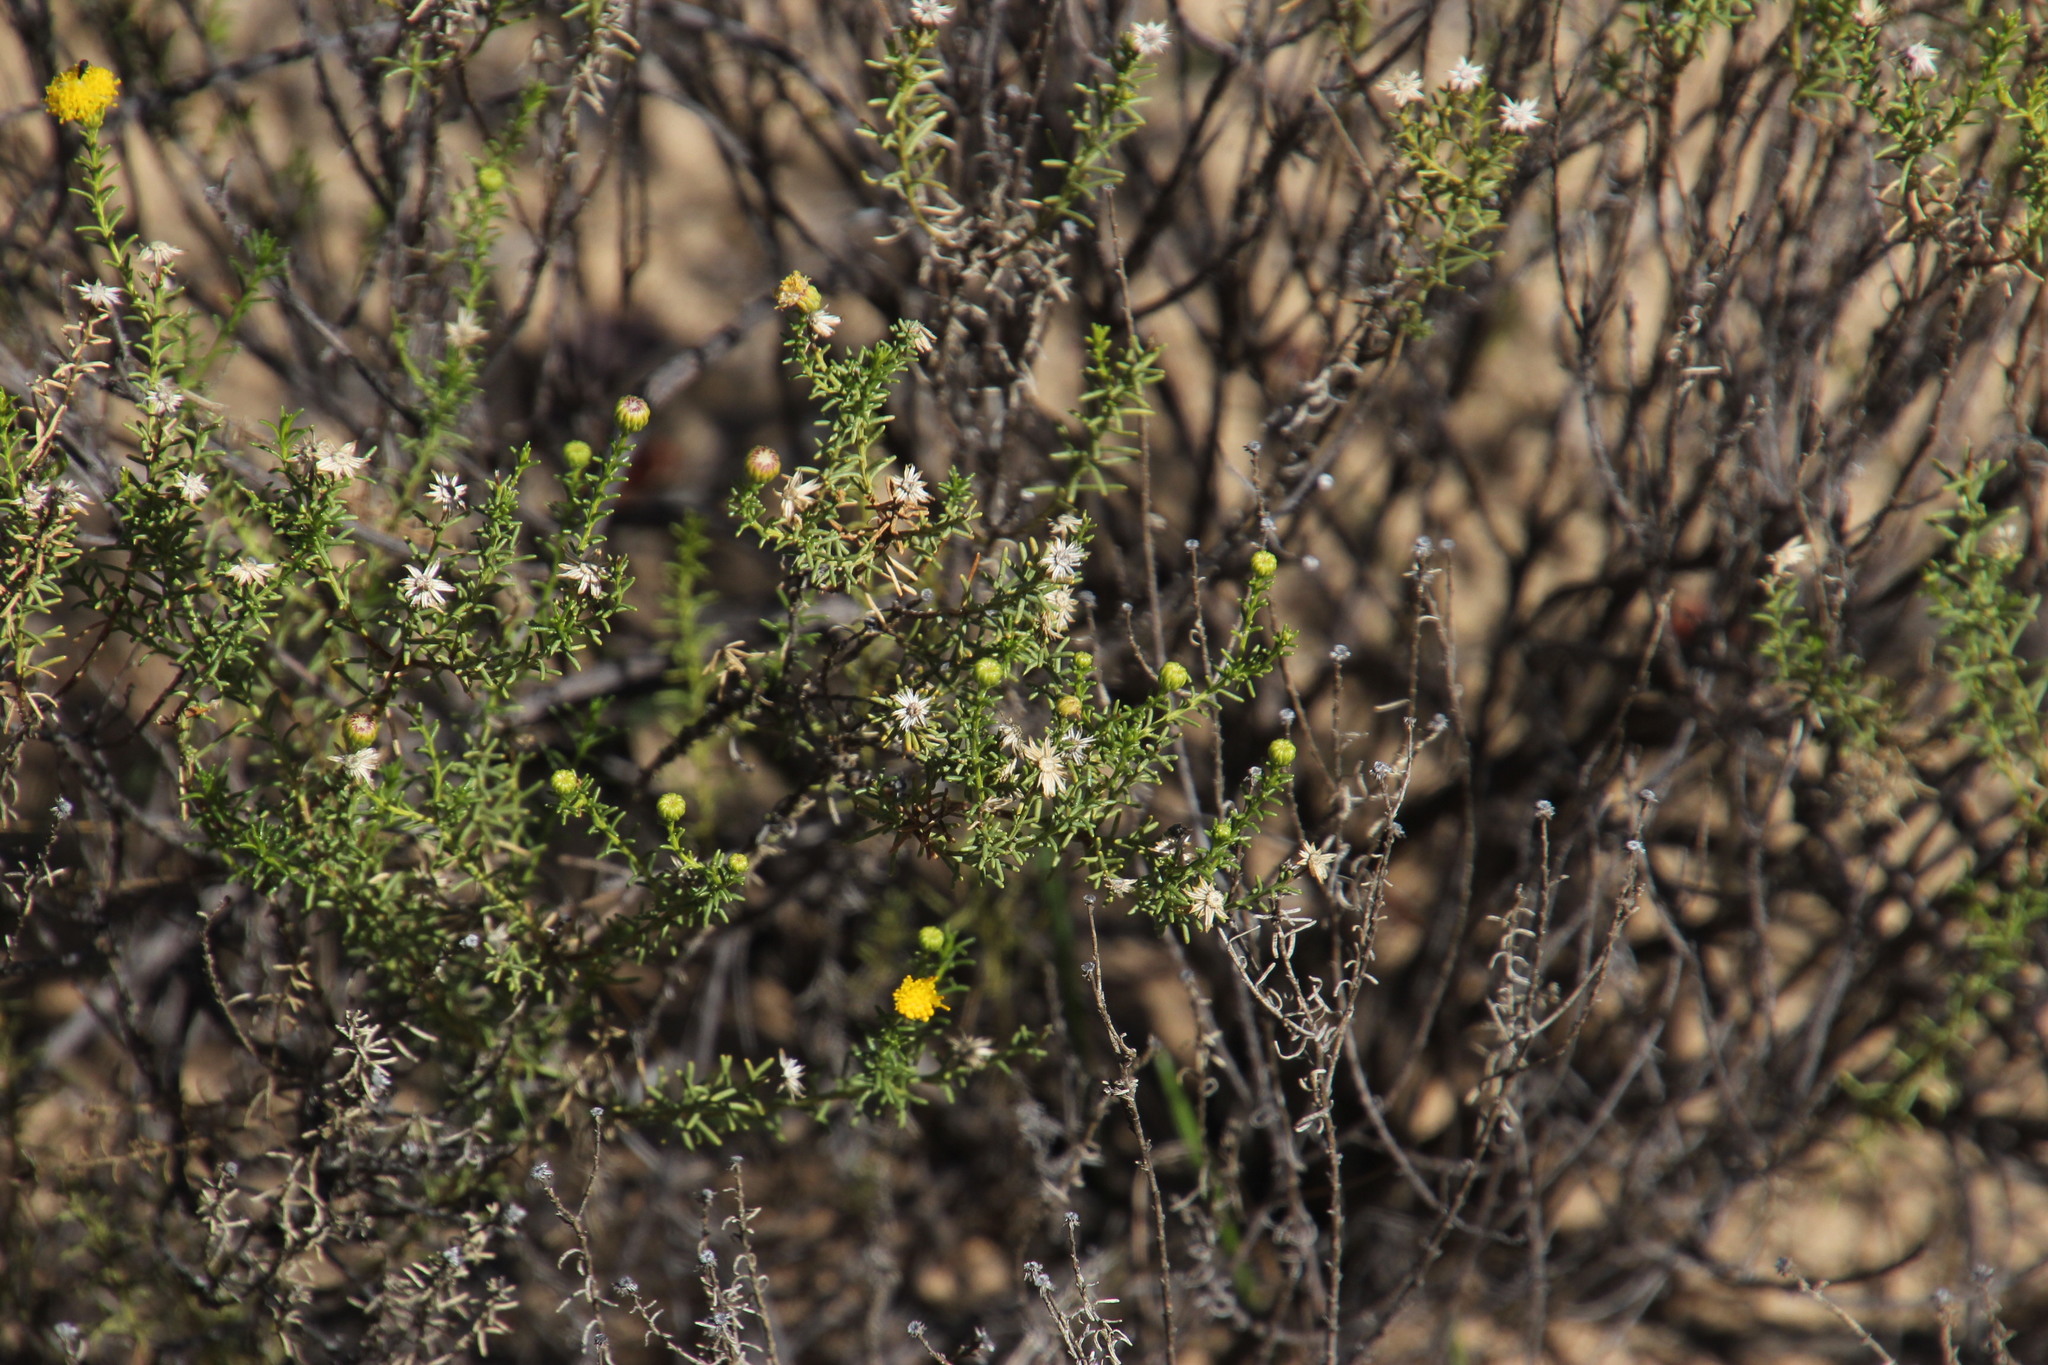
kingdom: Plantae
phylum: Tracheophyta
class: Magnoliopsida
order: Asterales
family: Asteraceae
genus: Chrysocoma
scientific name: Chrysocoma ciliata
